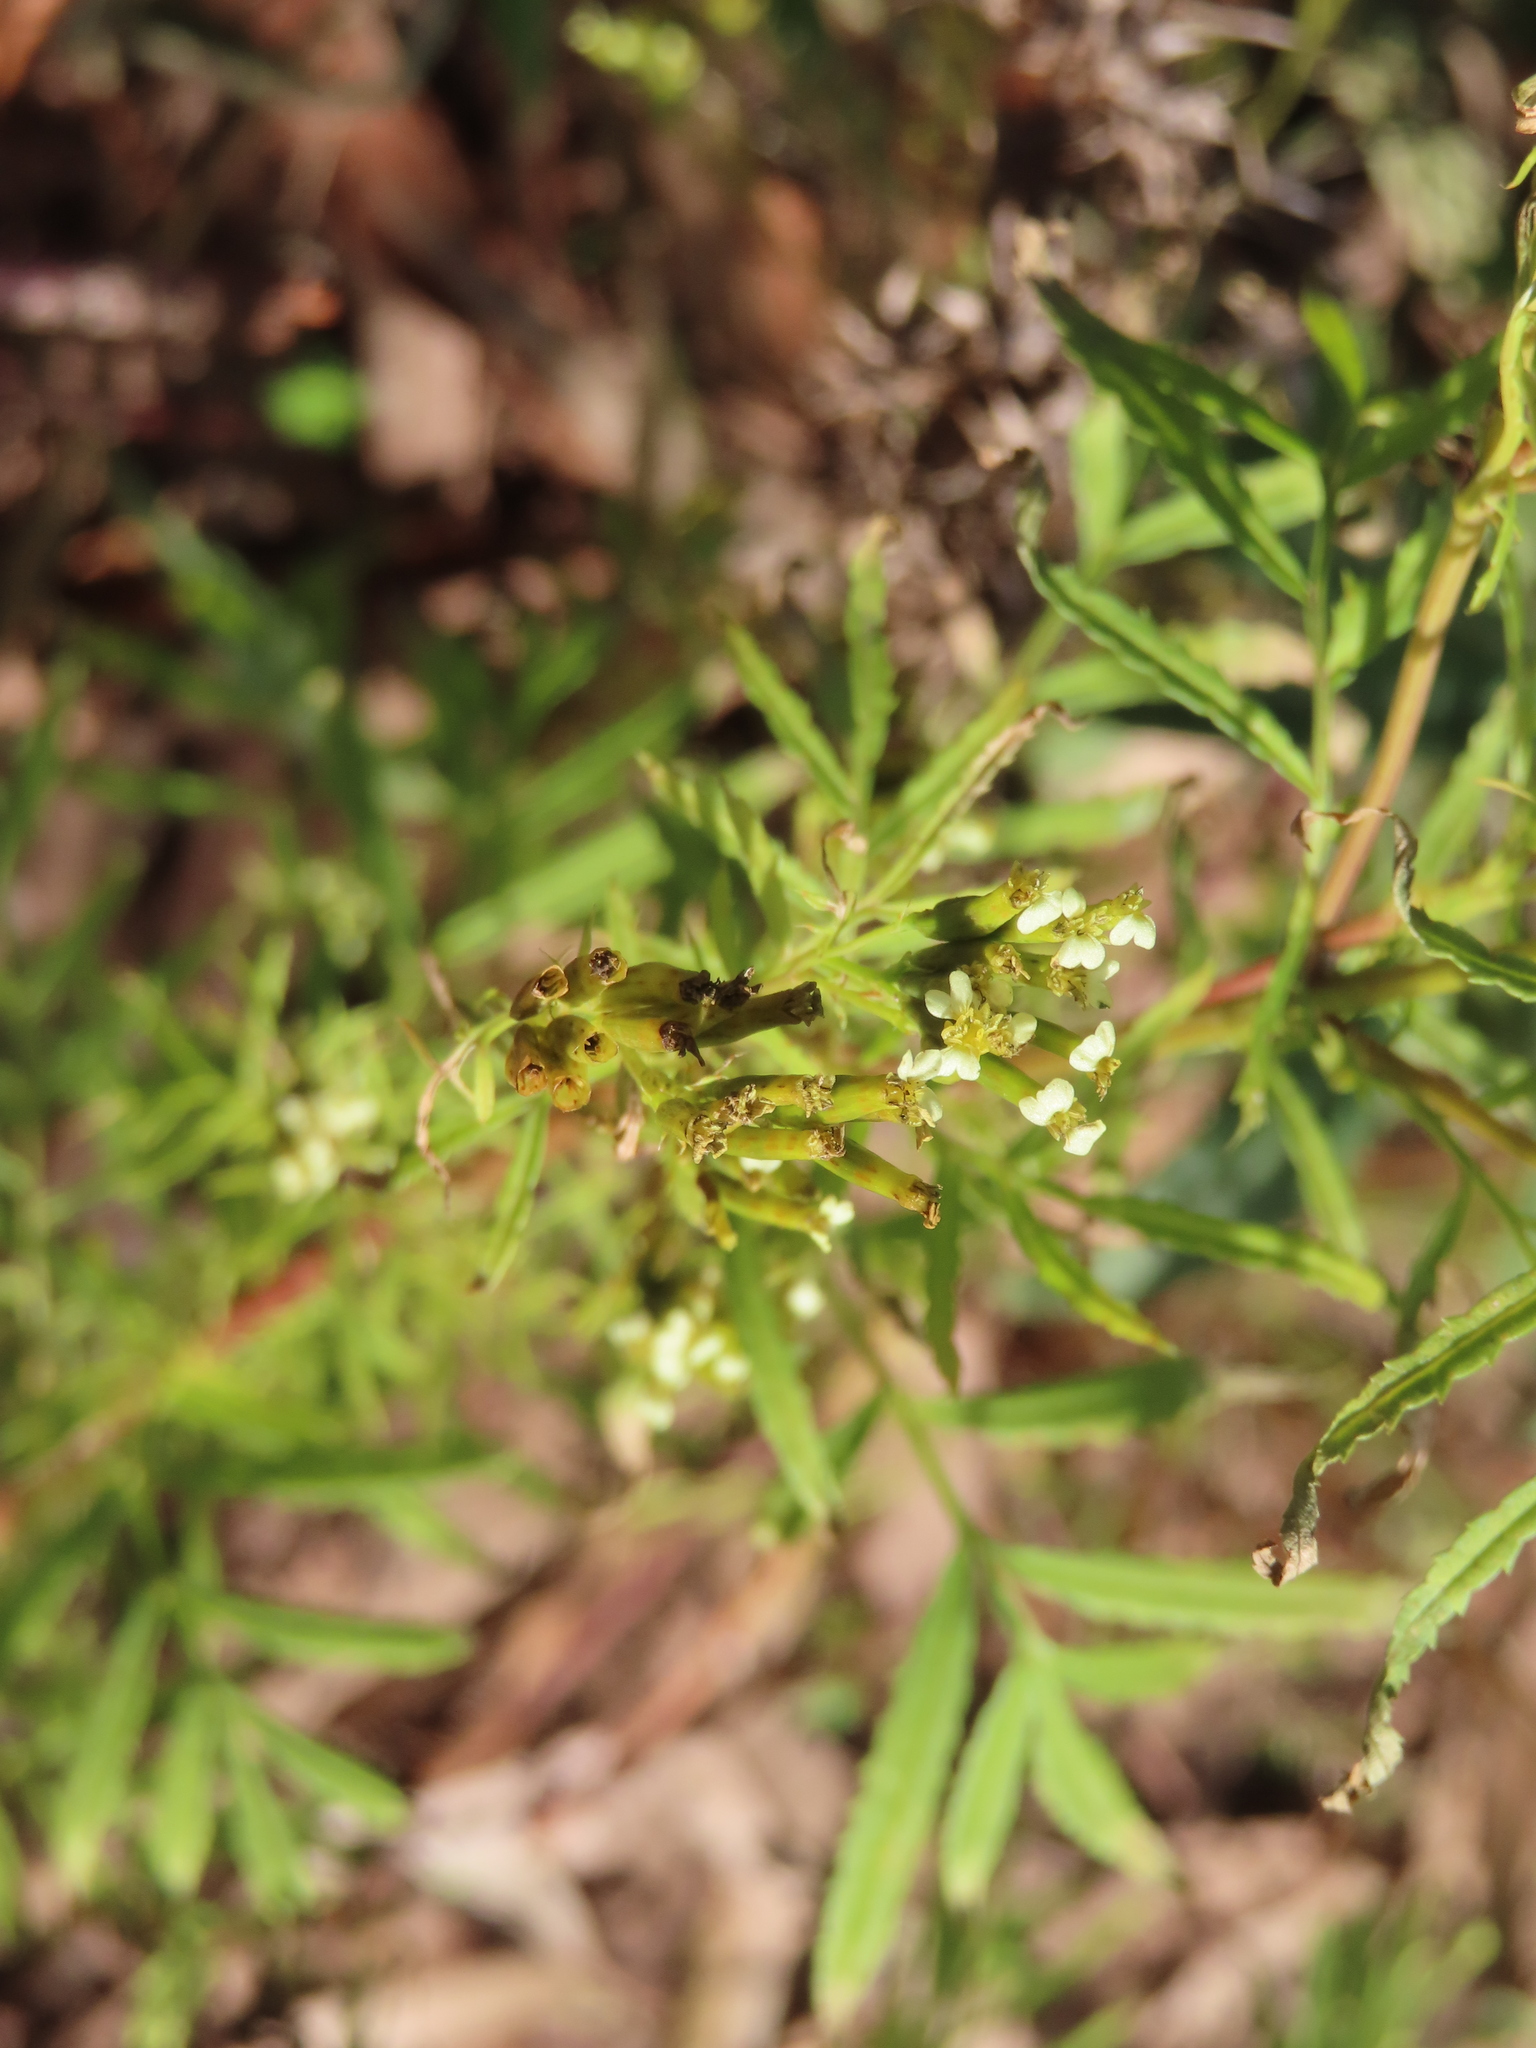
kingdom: Plantae
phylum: Tracheophyta
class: Magnoliopsida
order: Asterales
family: Asteraceae
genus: Tagetes
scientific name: Tagetes minuta
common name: Muster john henry
